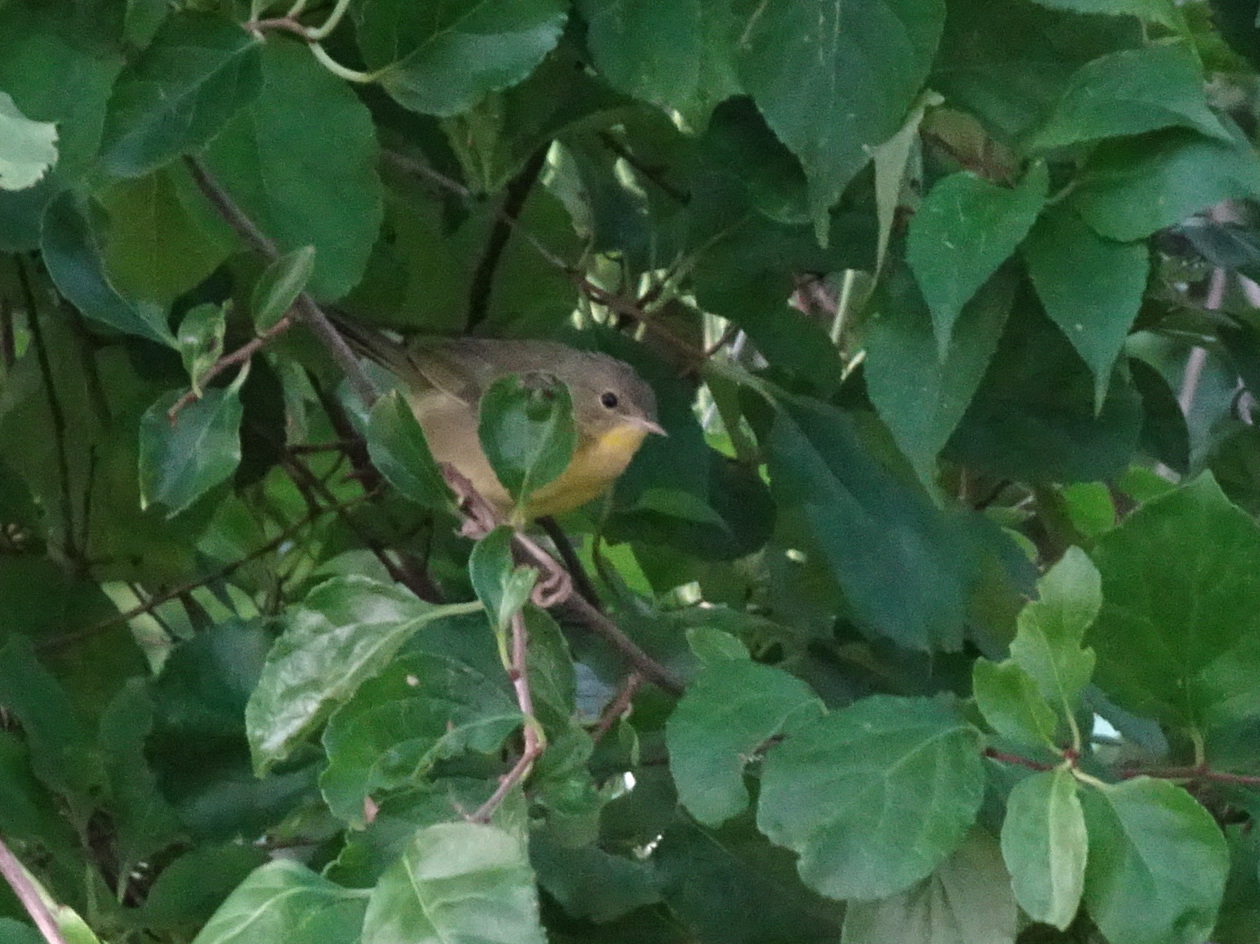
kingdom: Animalia
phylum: Chordata
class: Aves
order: Passeriformes
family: Parulidae
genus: Geothlypis
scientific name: Geothlypis trichas
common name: Common yellowthroat
